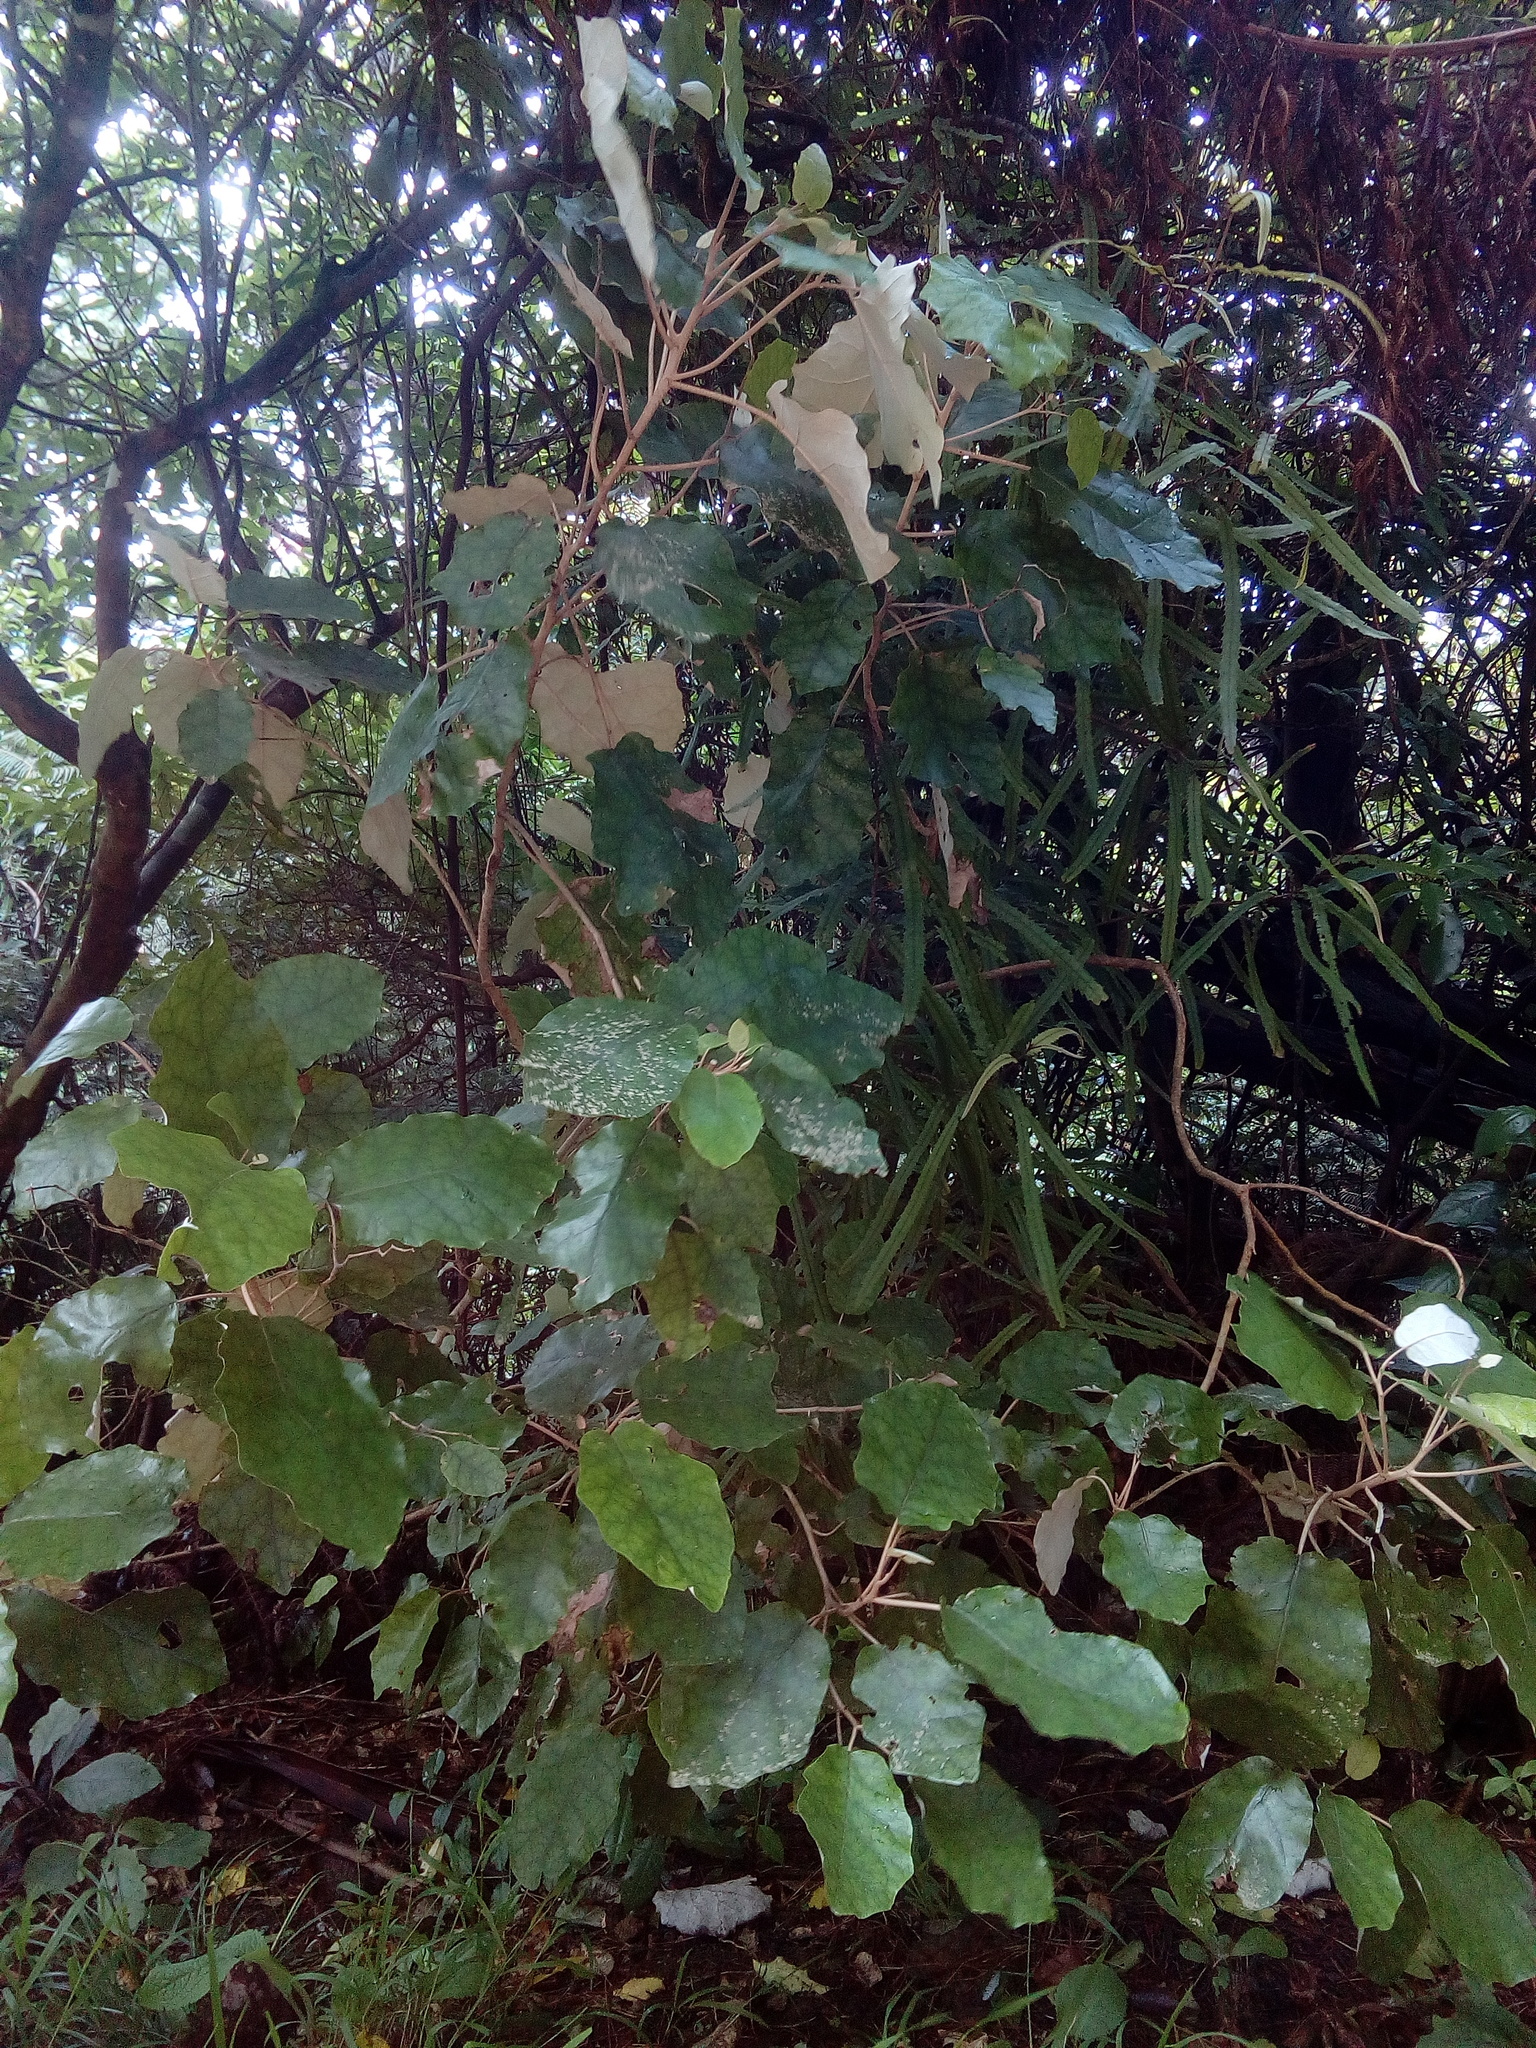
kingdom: Plantae
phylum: Tracheophyta
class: Magnoliopsida
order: Asterales
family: Asteraceae
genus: Brachyglottis
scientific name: Brachyglottis repanda
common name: Hedge ragwort
